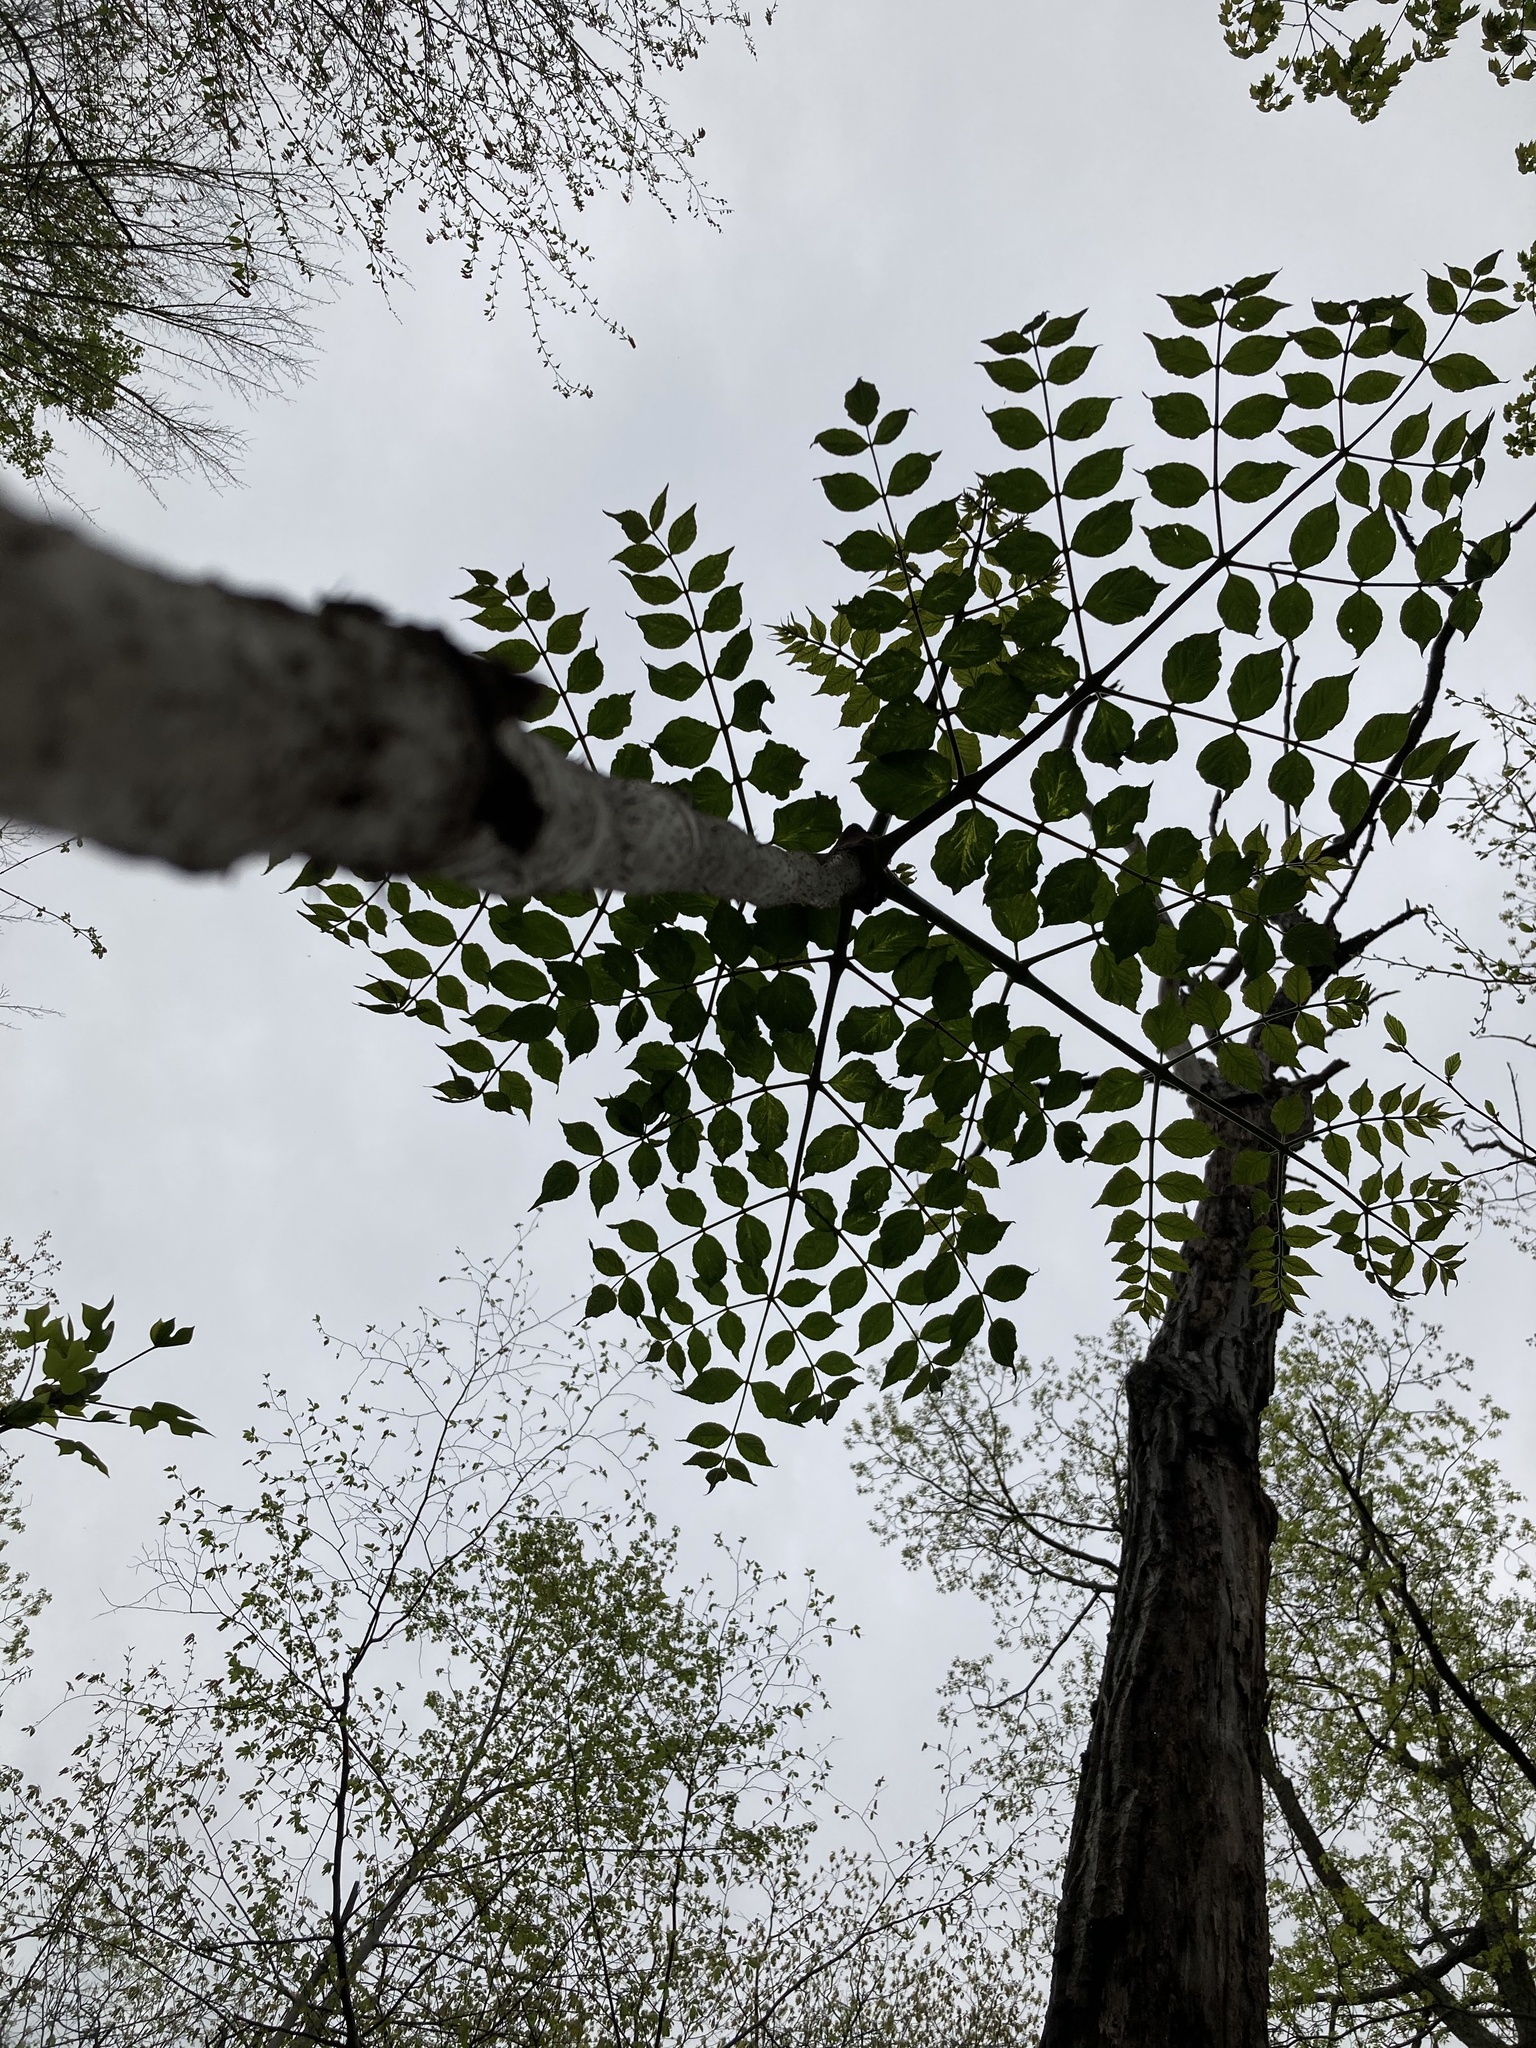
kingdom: Plantae
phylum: Tracheophyta
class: Magnoliopsida
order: Apiales
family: Araliaceae
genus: Aralia
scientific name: Aralia elata
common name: Japanese angelica-tree
